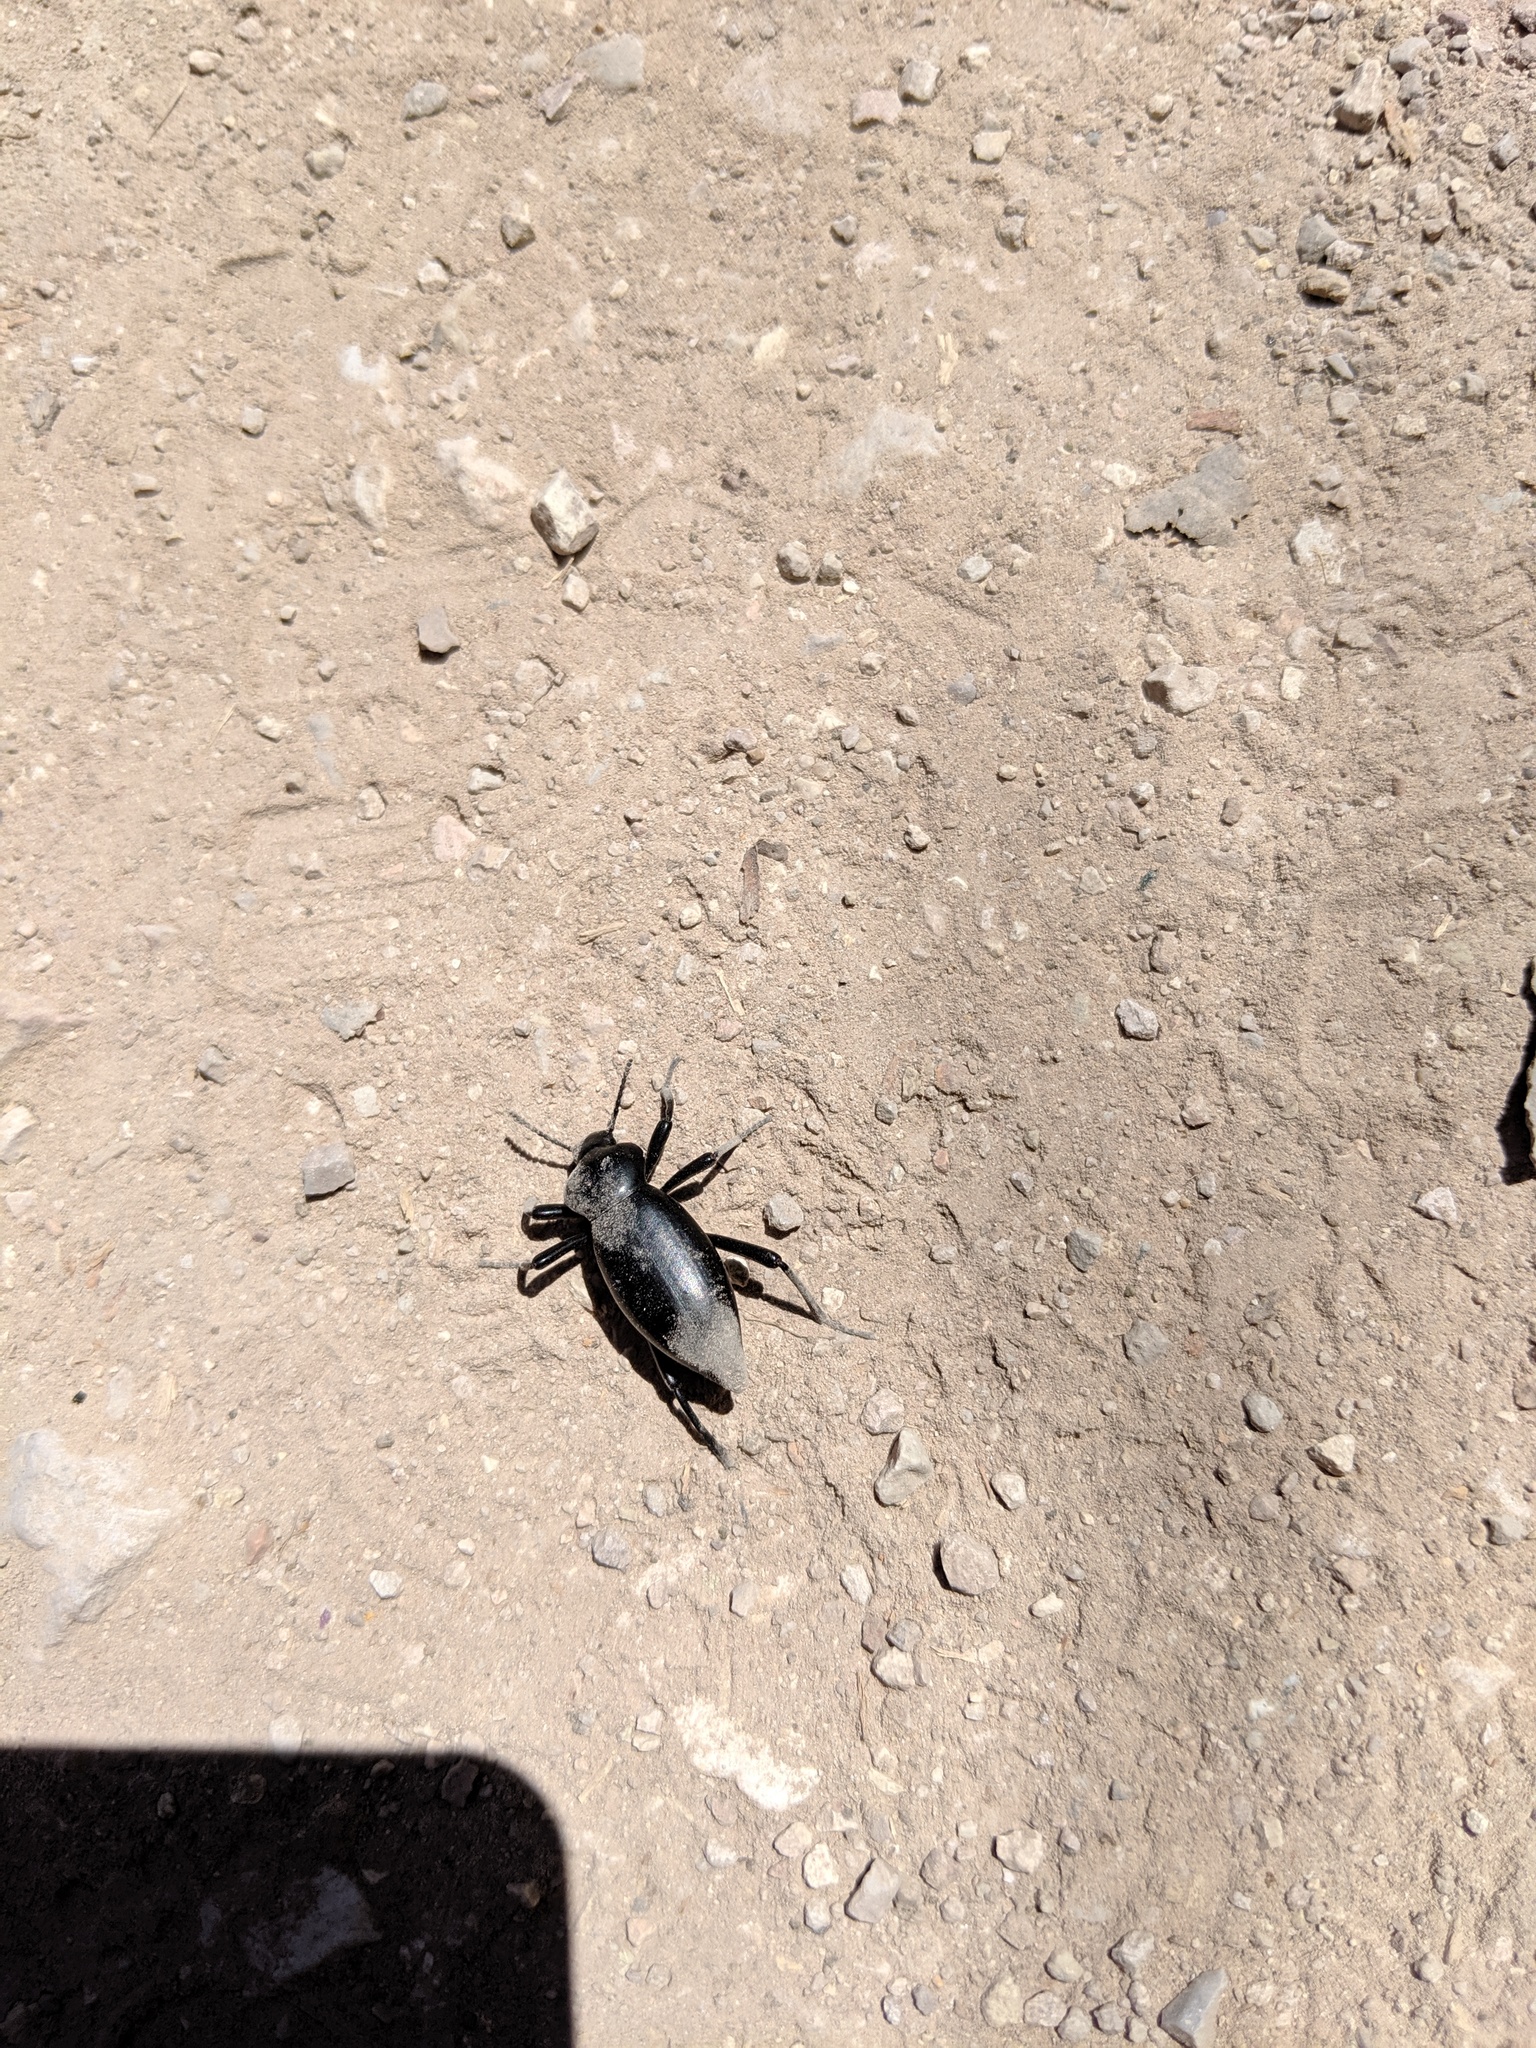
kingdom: Animalia
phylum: Arthropoda
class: Insecta
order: Coleoptera
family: Tenebrionidae
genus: Eleodes
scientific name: Eleodes acuticauda
